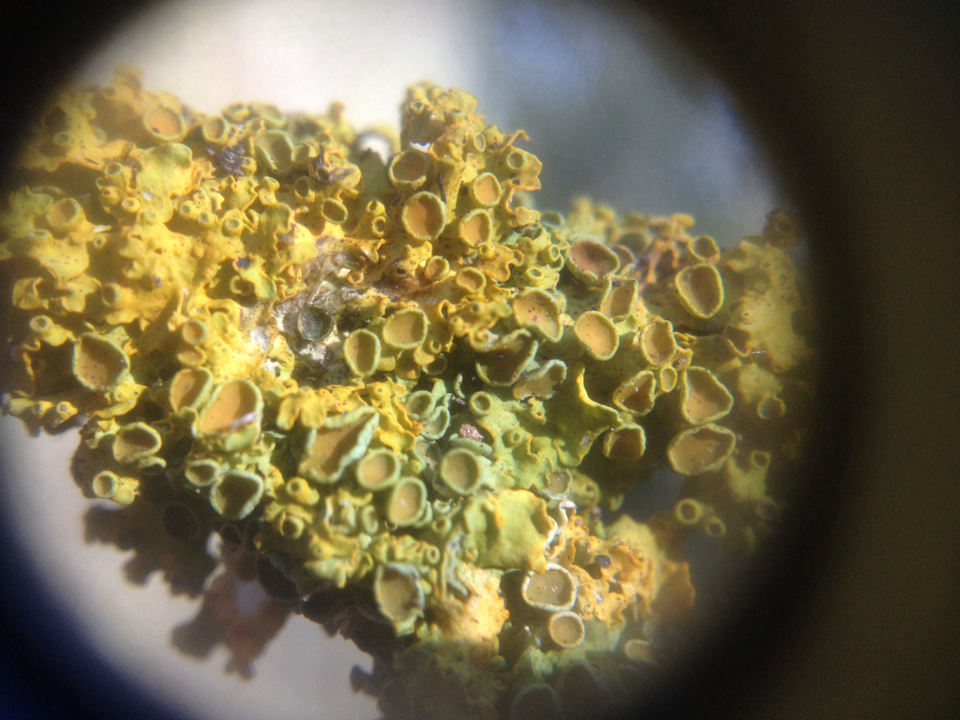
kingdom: Fungi
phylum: Ascomycota
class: Lecanoromycetes
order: Teloschistales
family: Teloschistaceae
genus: Xanthoria
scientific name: Xanthoria parietina
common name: Common orange lichen
